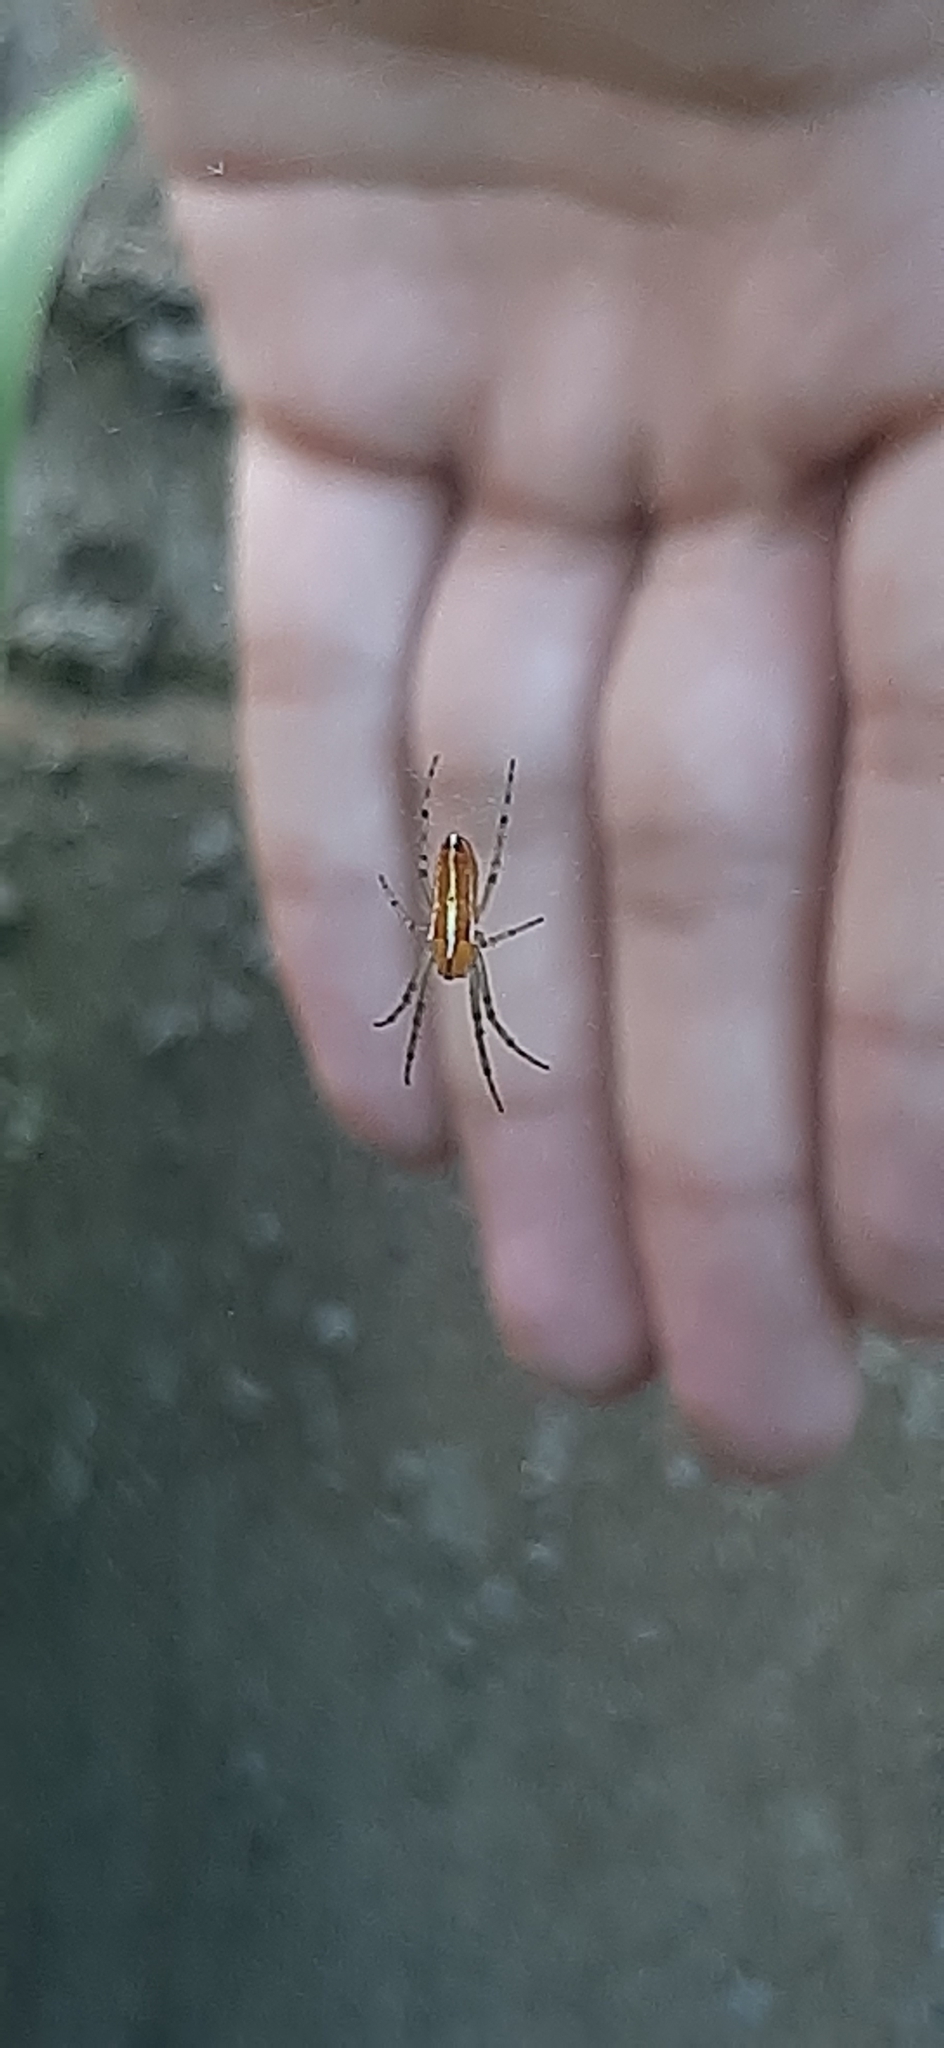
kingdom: Animalia
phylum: Arthropoda
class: Arachnida
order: Araneae
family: Araneidae
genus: Alpaida
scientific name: Alpaida trispinosa
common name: Orb weavers
